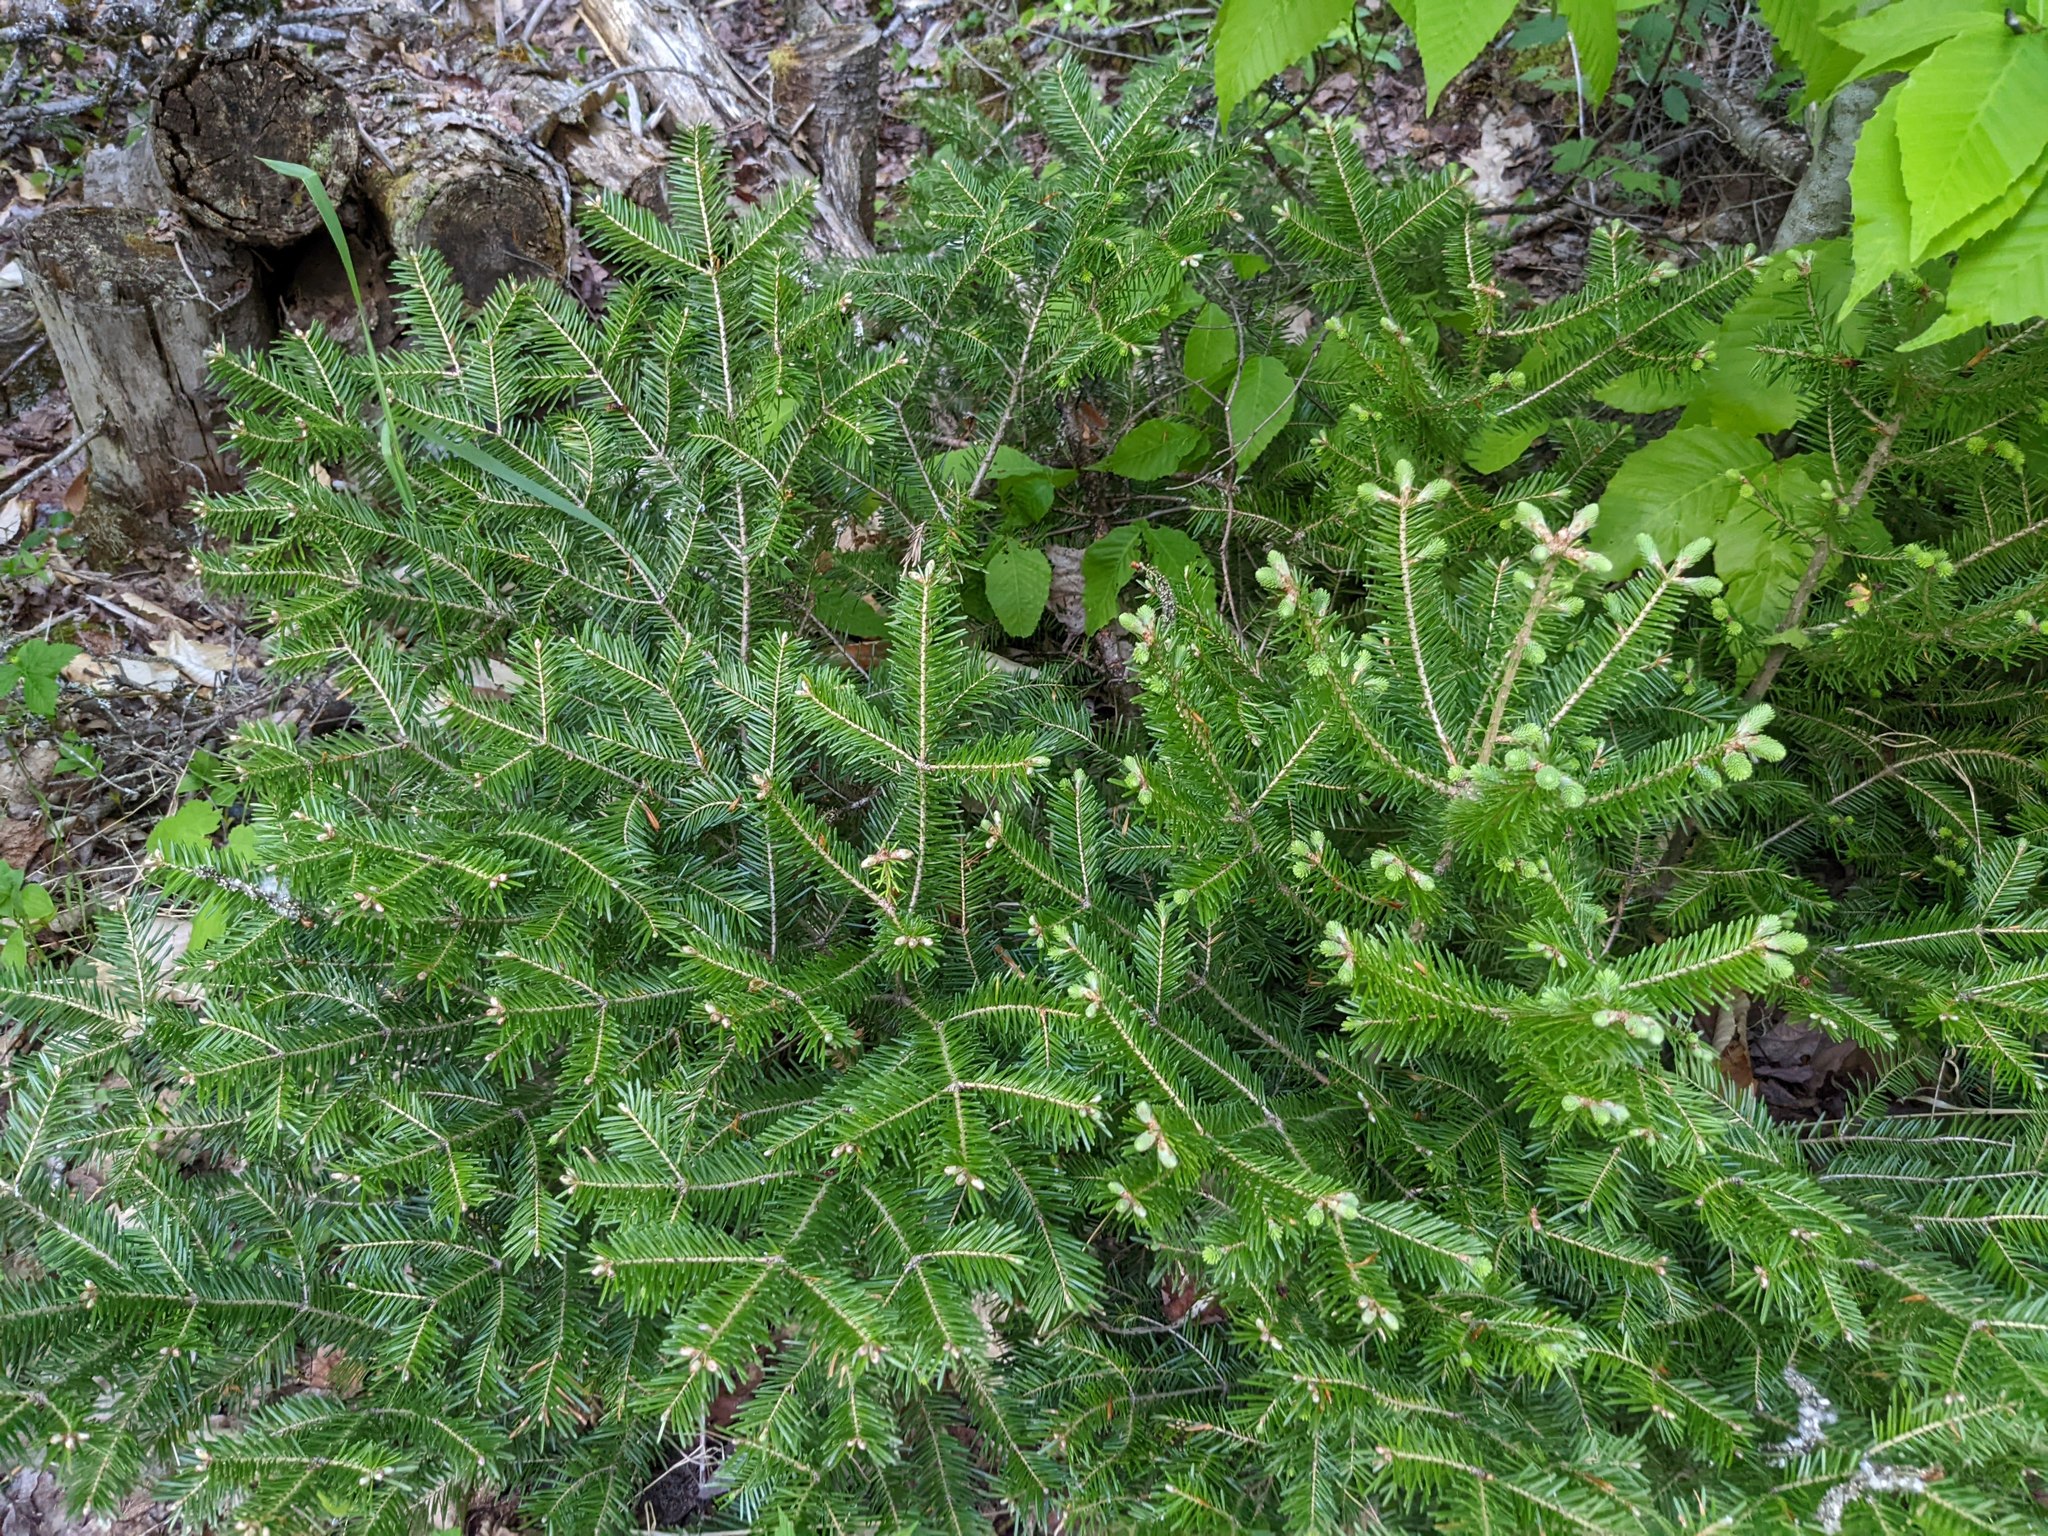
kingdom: Plantae
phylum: Tracheophyta
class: Pinopsida
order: Pinales
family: Pinaceae
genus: Abies
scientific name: Abies balsamea
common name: Balsam fir
